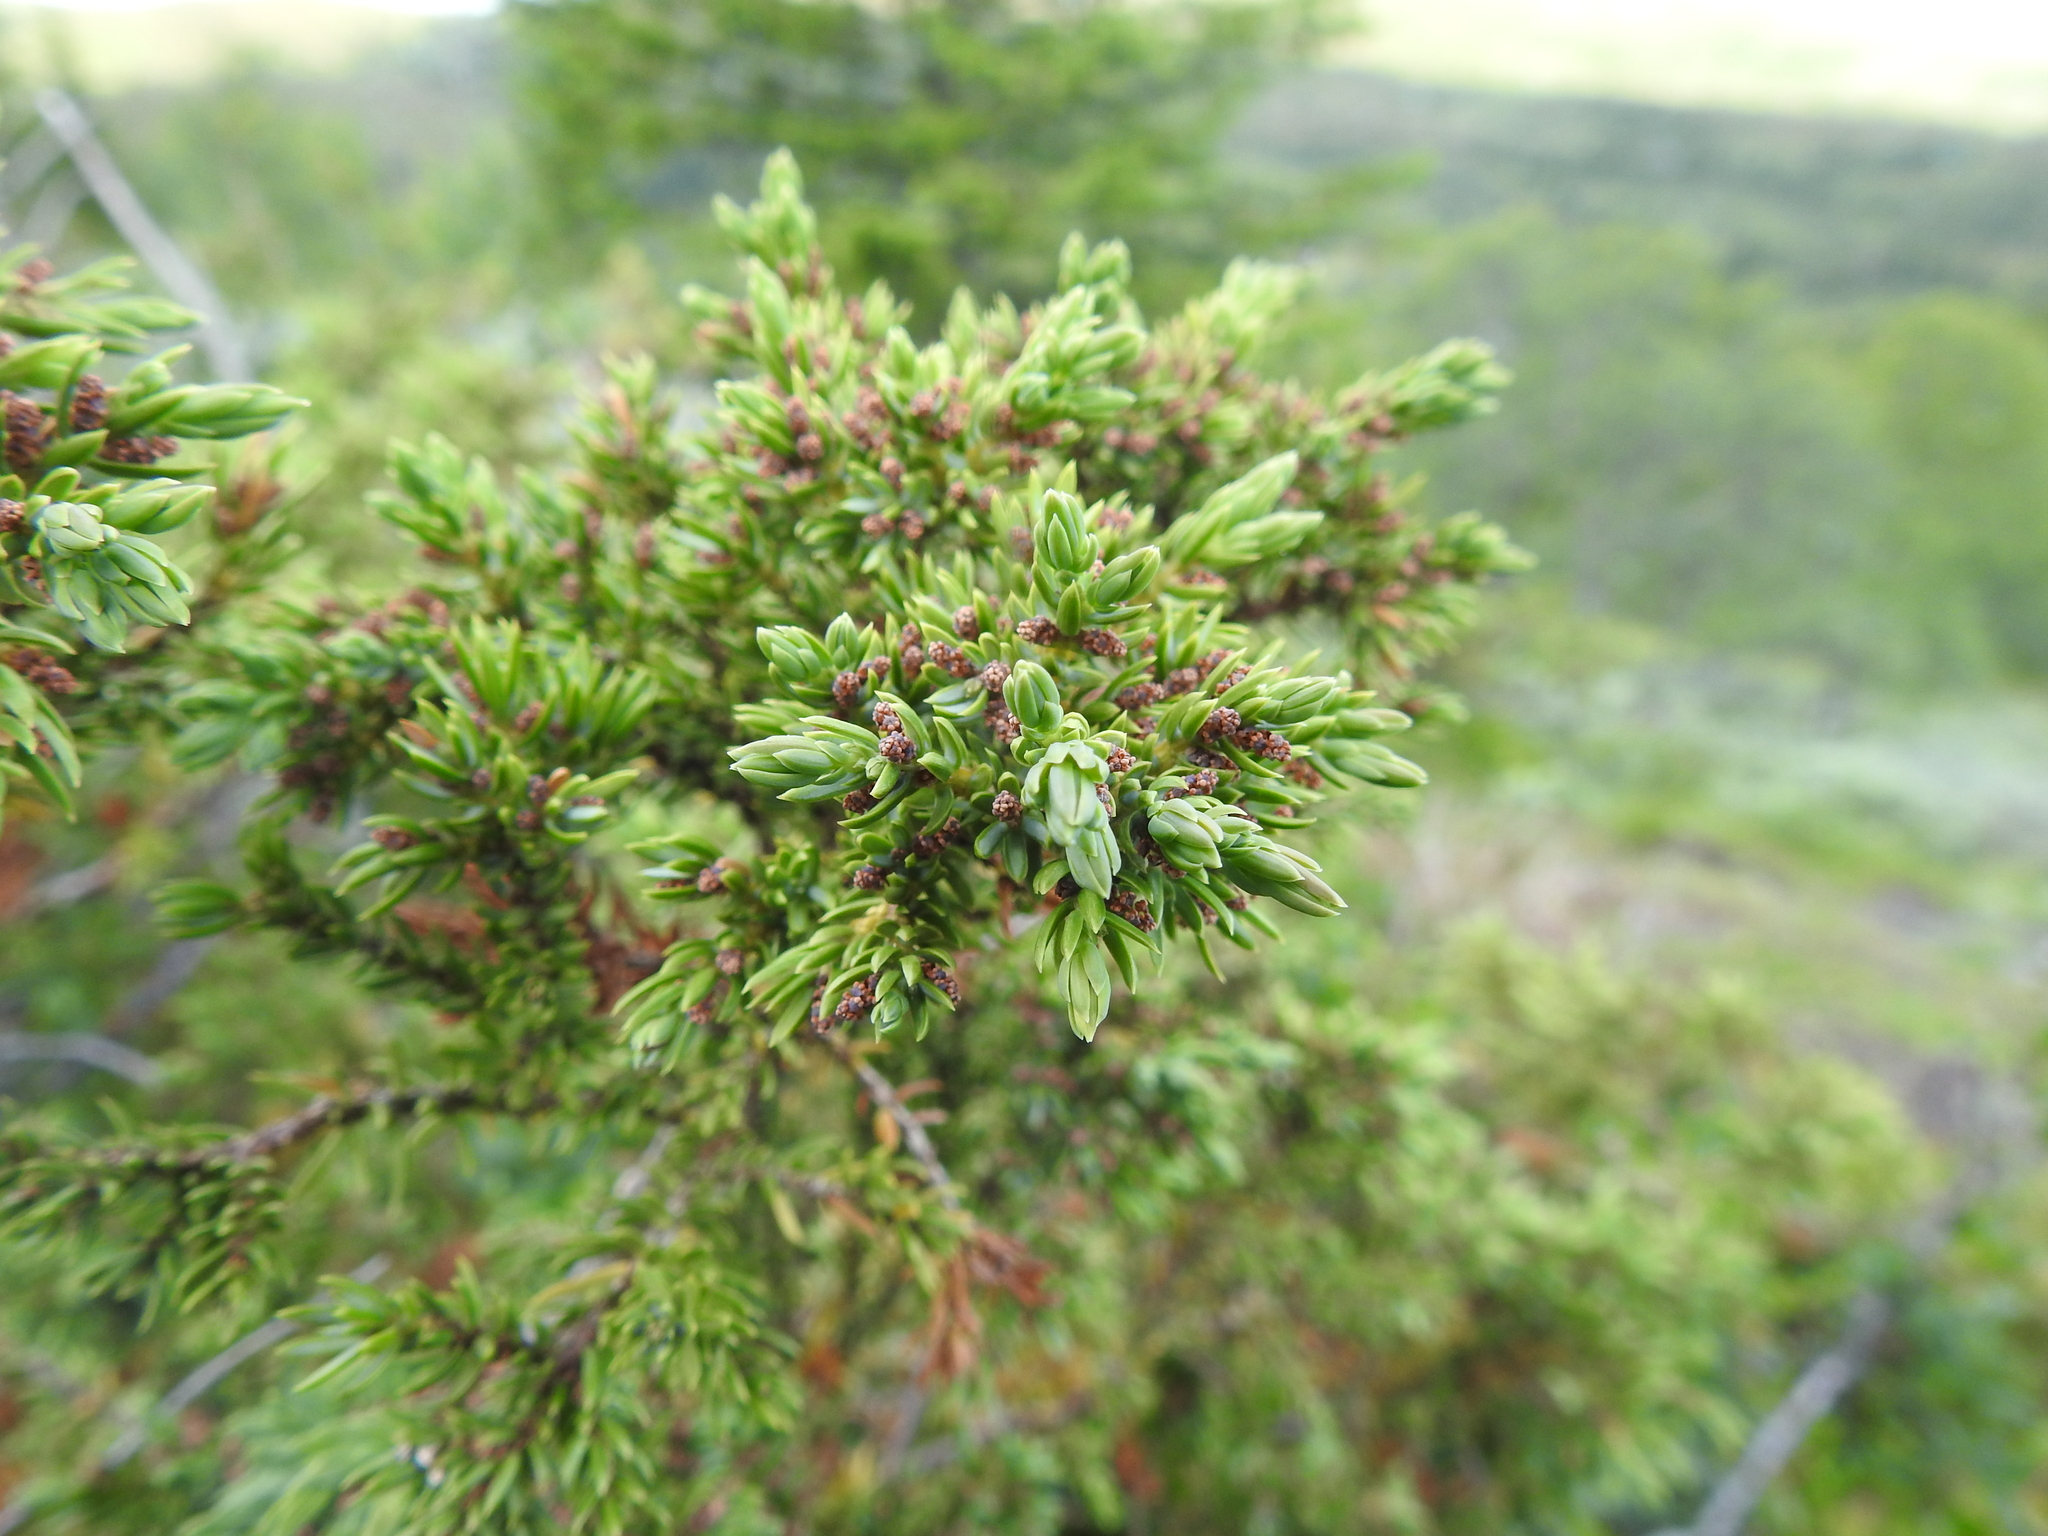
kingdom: Plantae
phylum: Tracheophyta
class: Pinopsida
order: Pinales
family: Cupressaceae
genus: Juniperus
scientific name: Juniperus communis
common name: Common juniper
